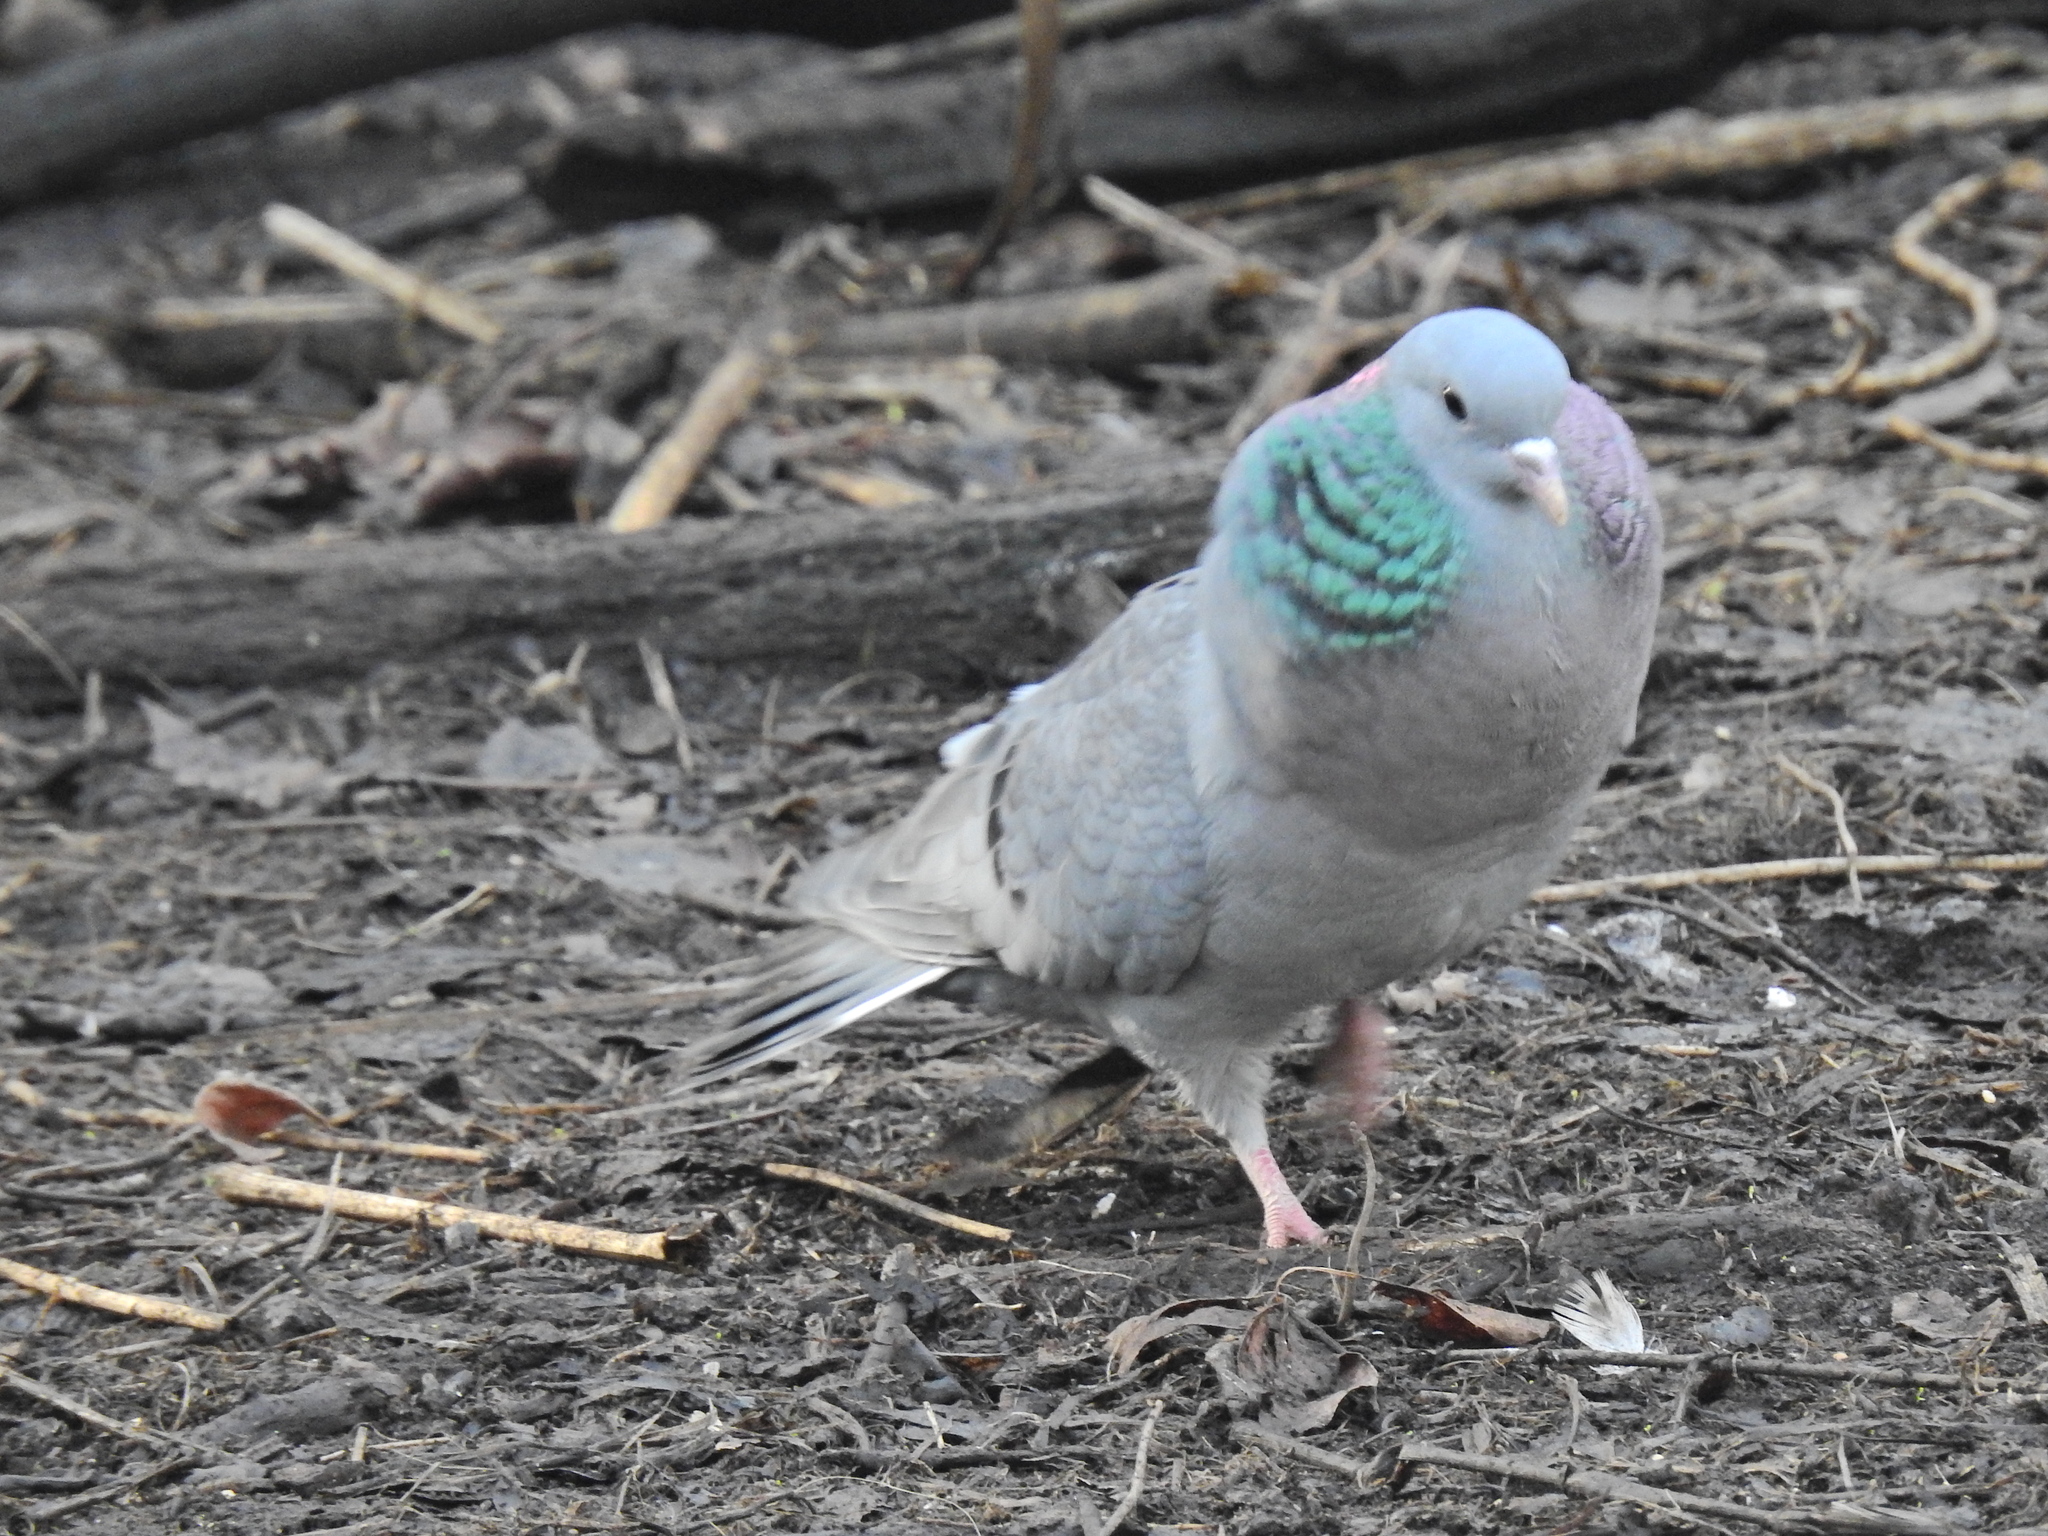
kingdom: Animalia
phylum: Chordata
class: Aves
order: Columbiformes
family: Columbidae
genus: Columba
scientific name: Columba oenas
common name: Stock dove
